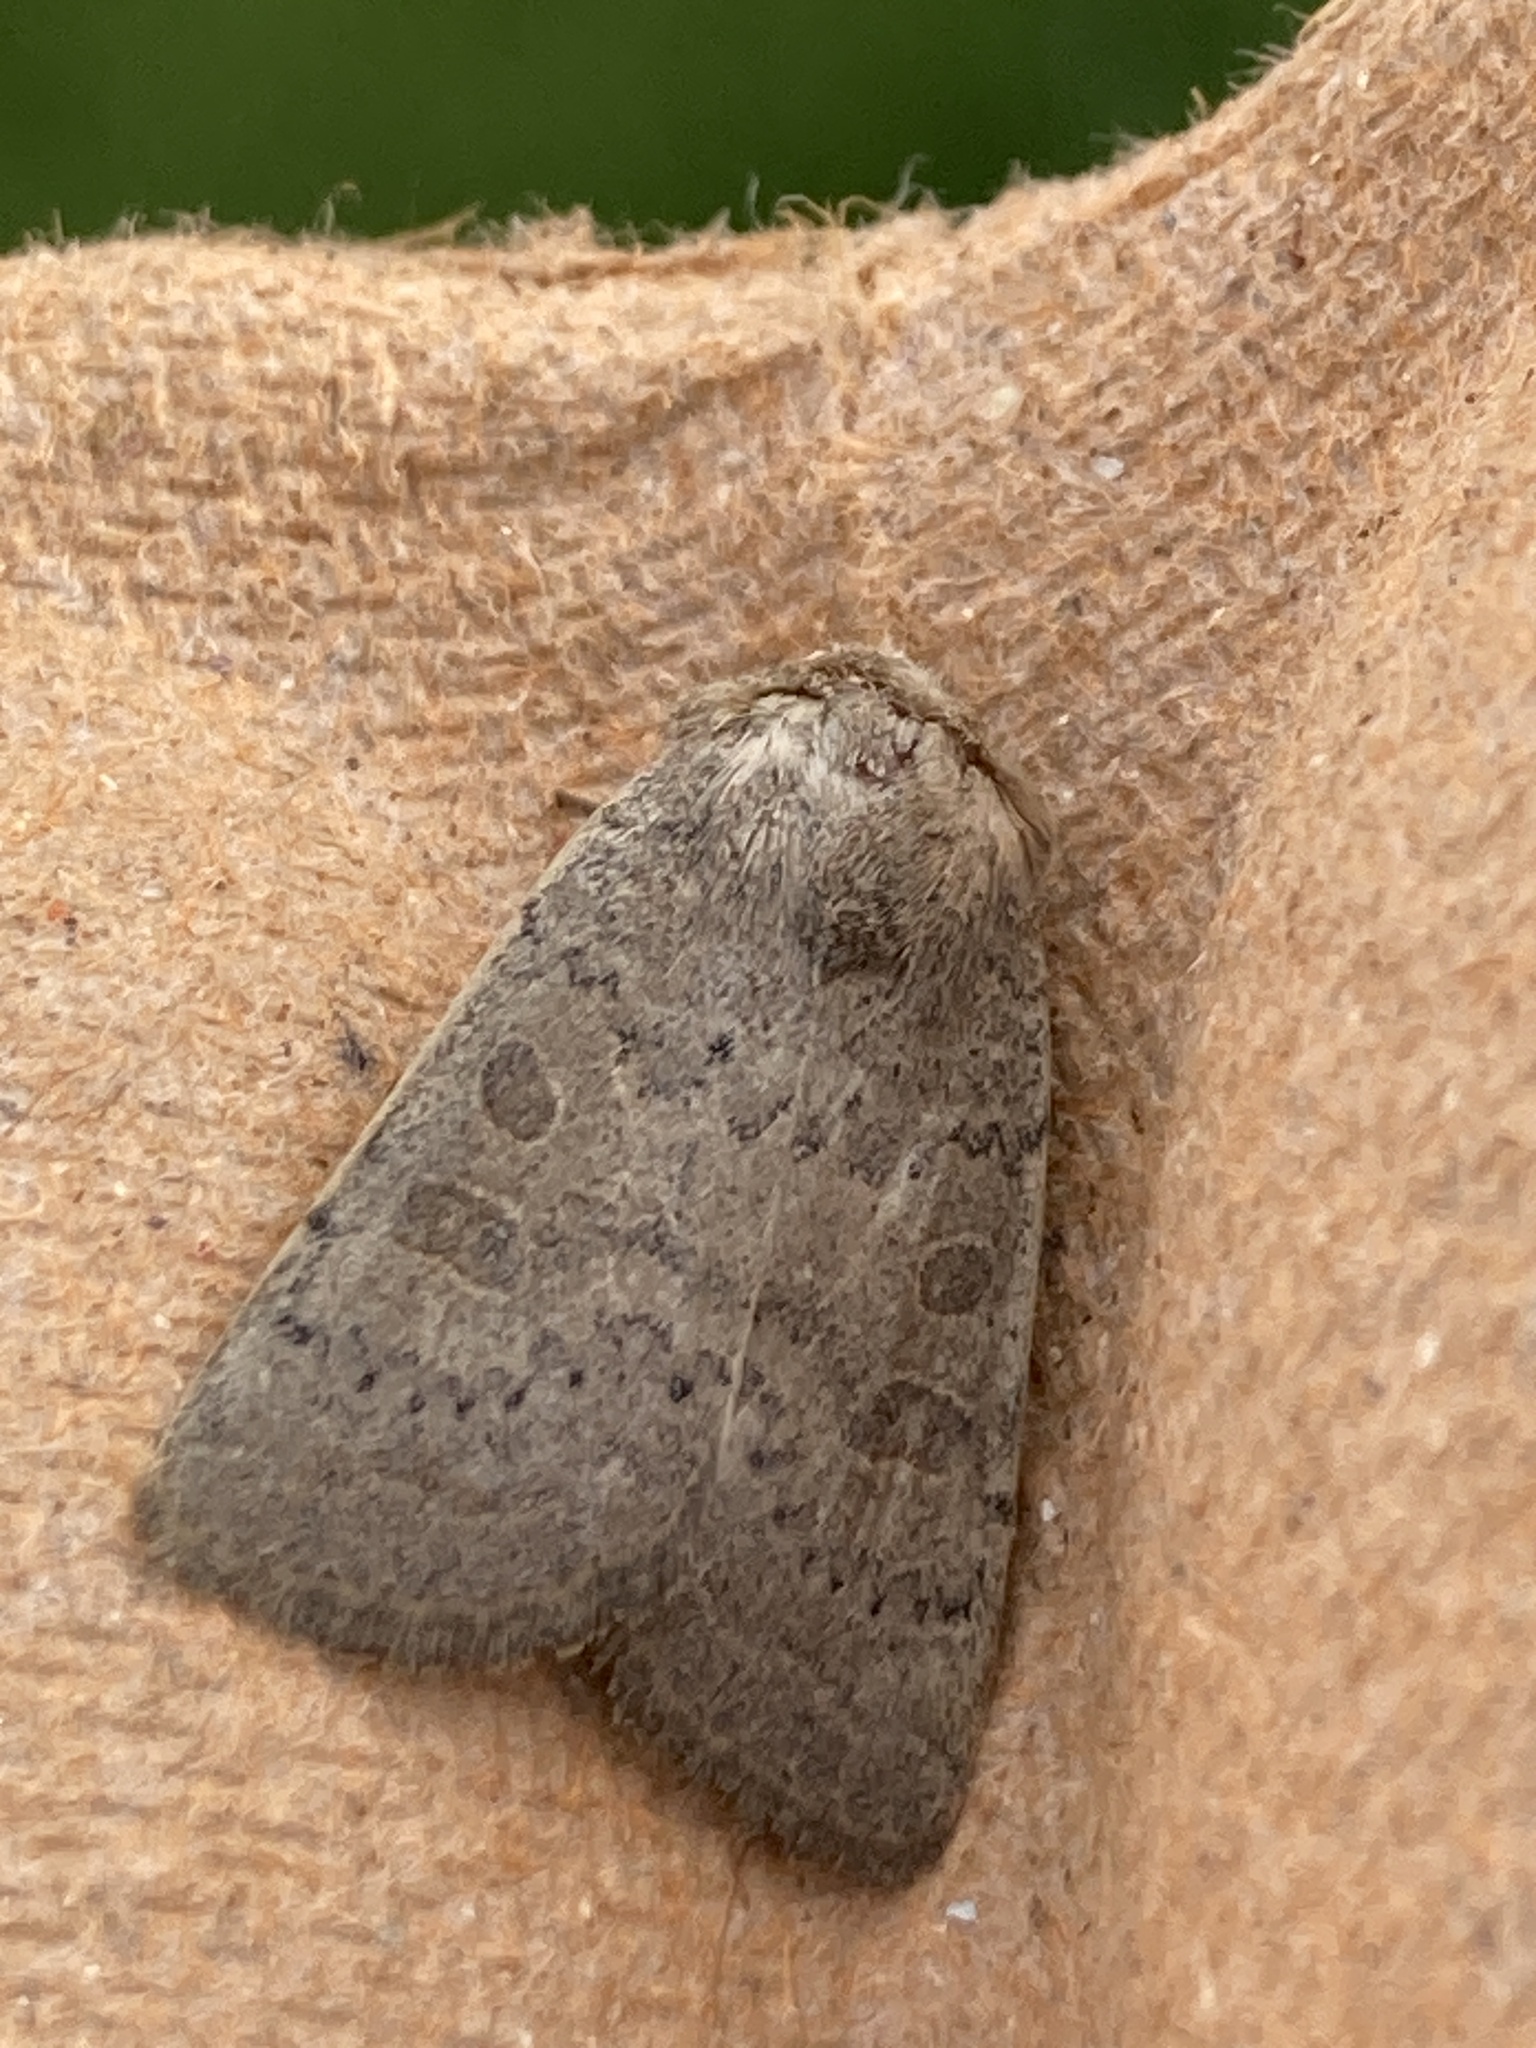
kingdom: Animalia
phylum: Arthropoda
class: Insecta
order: Lepidoptera
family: Noctuidae
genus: Hoplodrina
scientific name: Hoplodrina ambigua
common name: Vine's rustic
